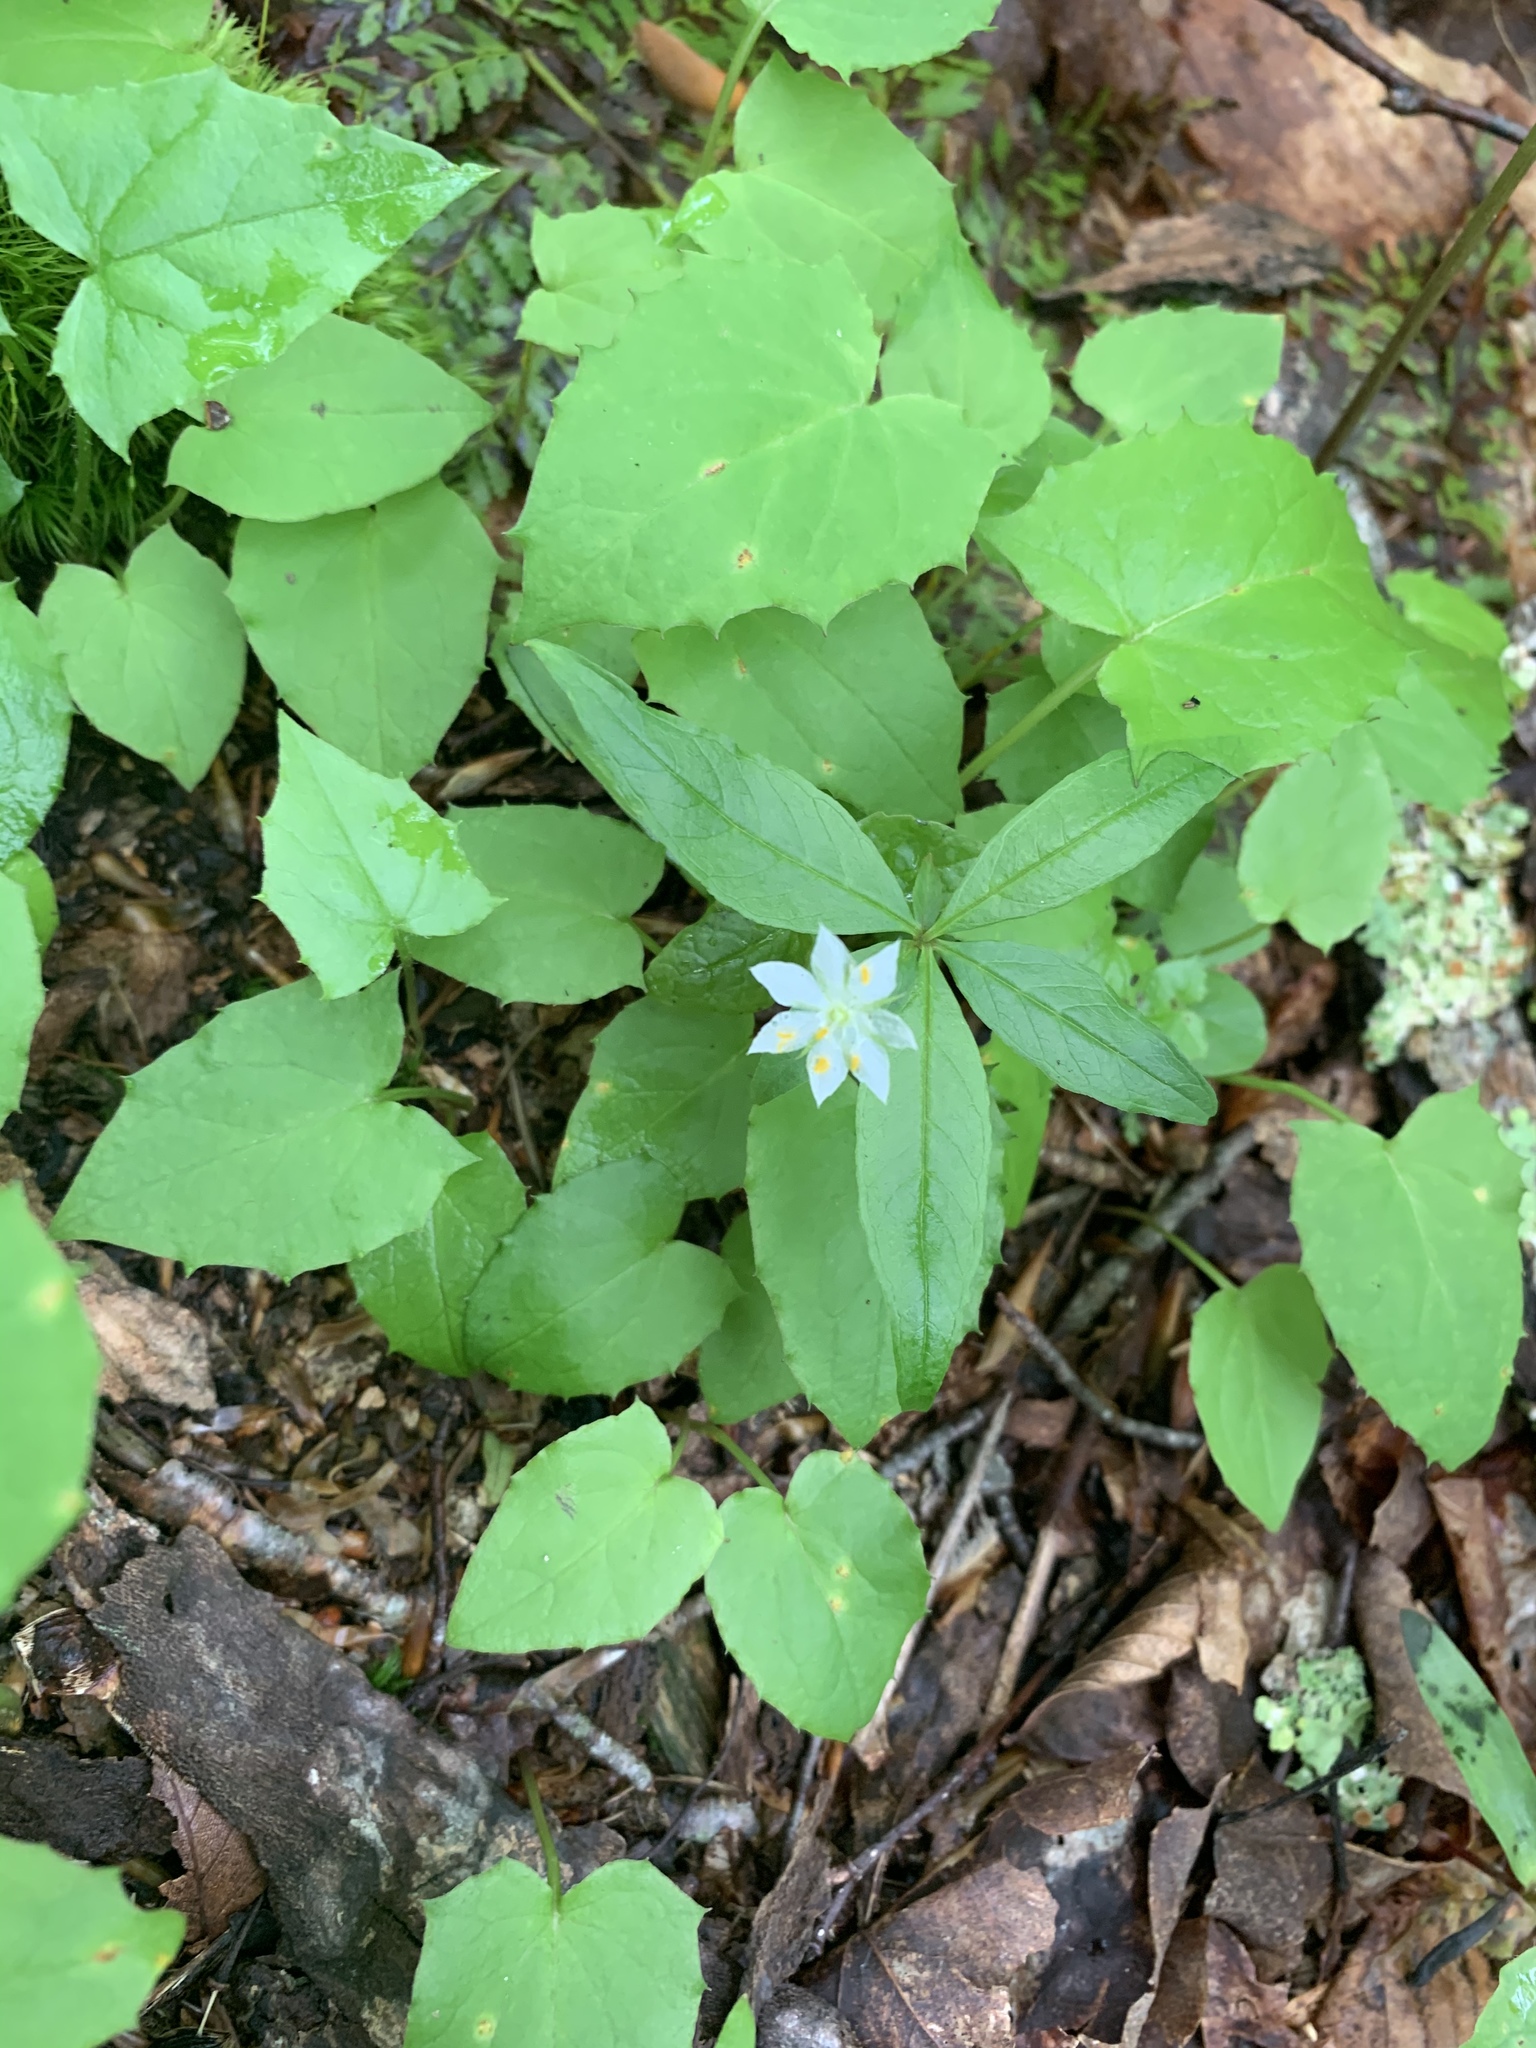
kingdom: Plantae
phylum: Tracheophyta
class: Magnoliopsida
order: Ericales
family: Primulaceae
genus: Lysimachia
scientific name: Lysimachia borealis
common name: American starflower
